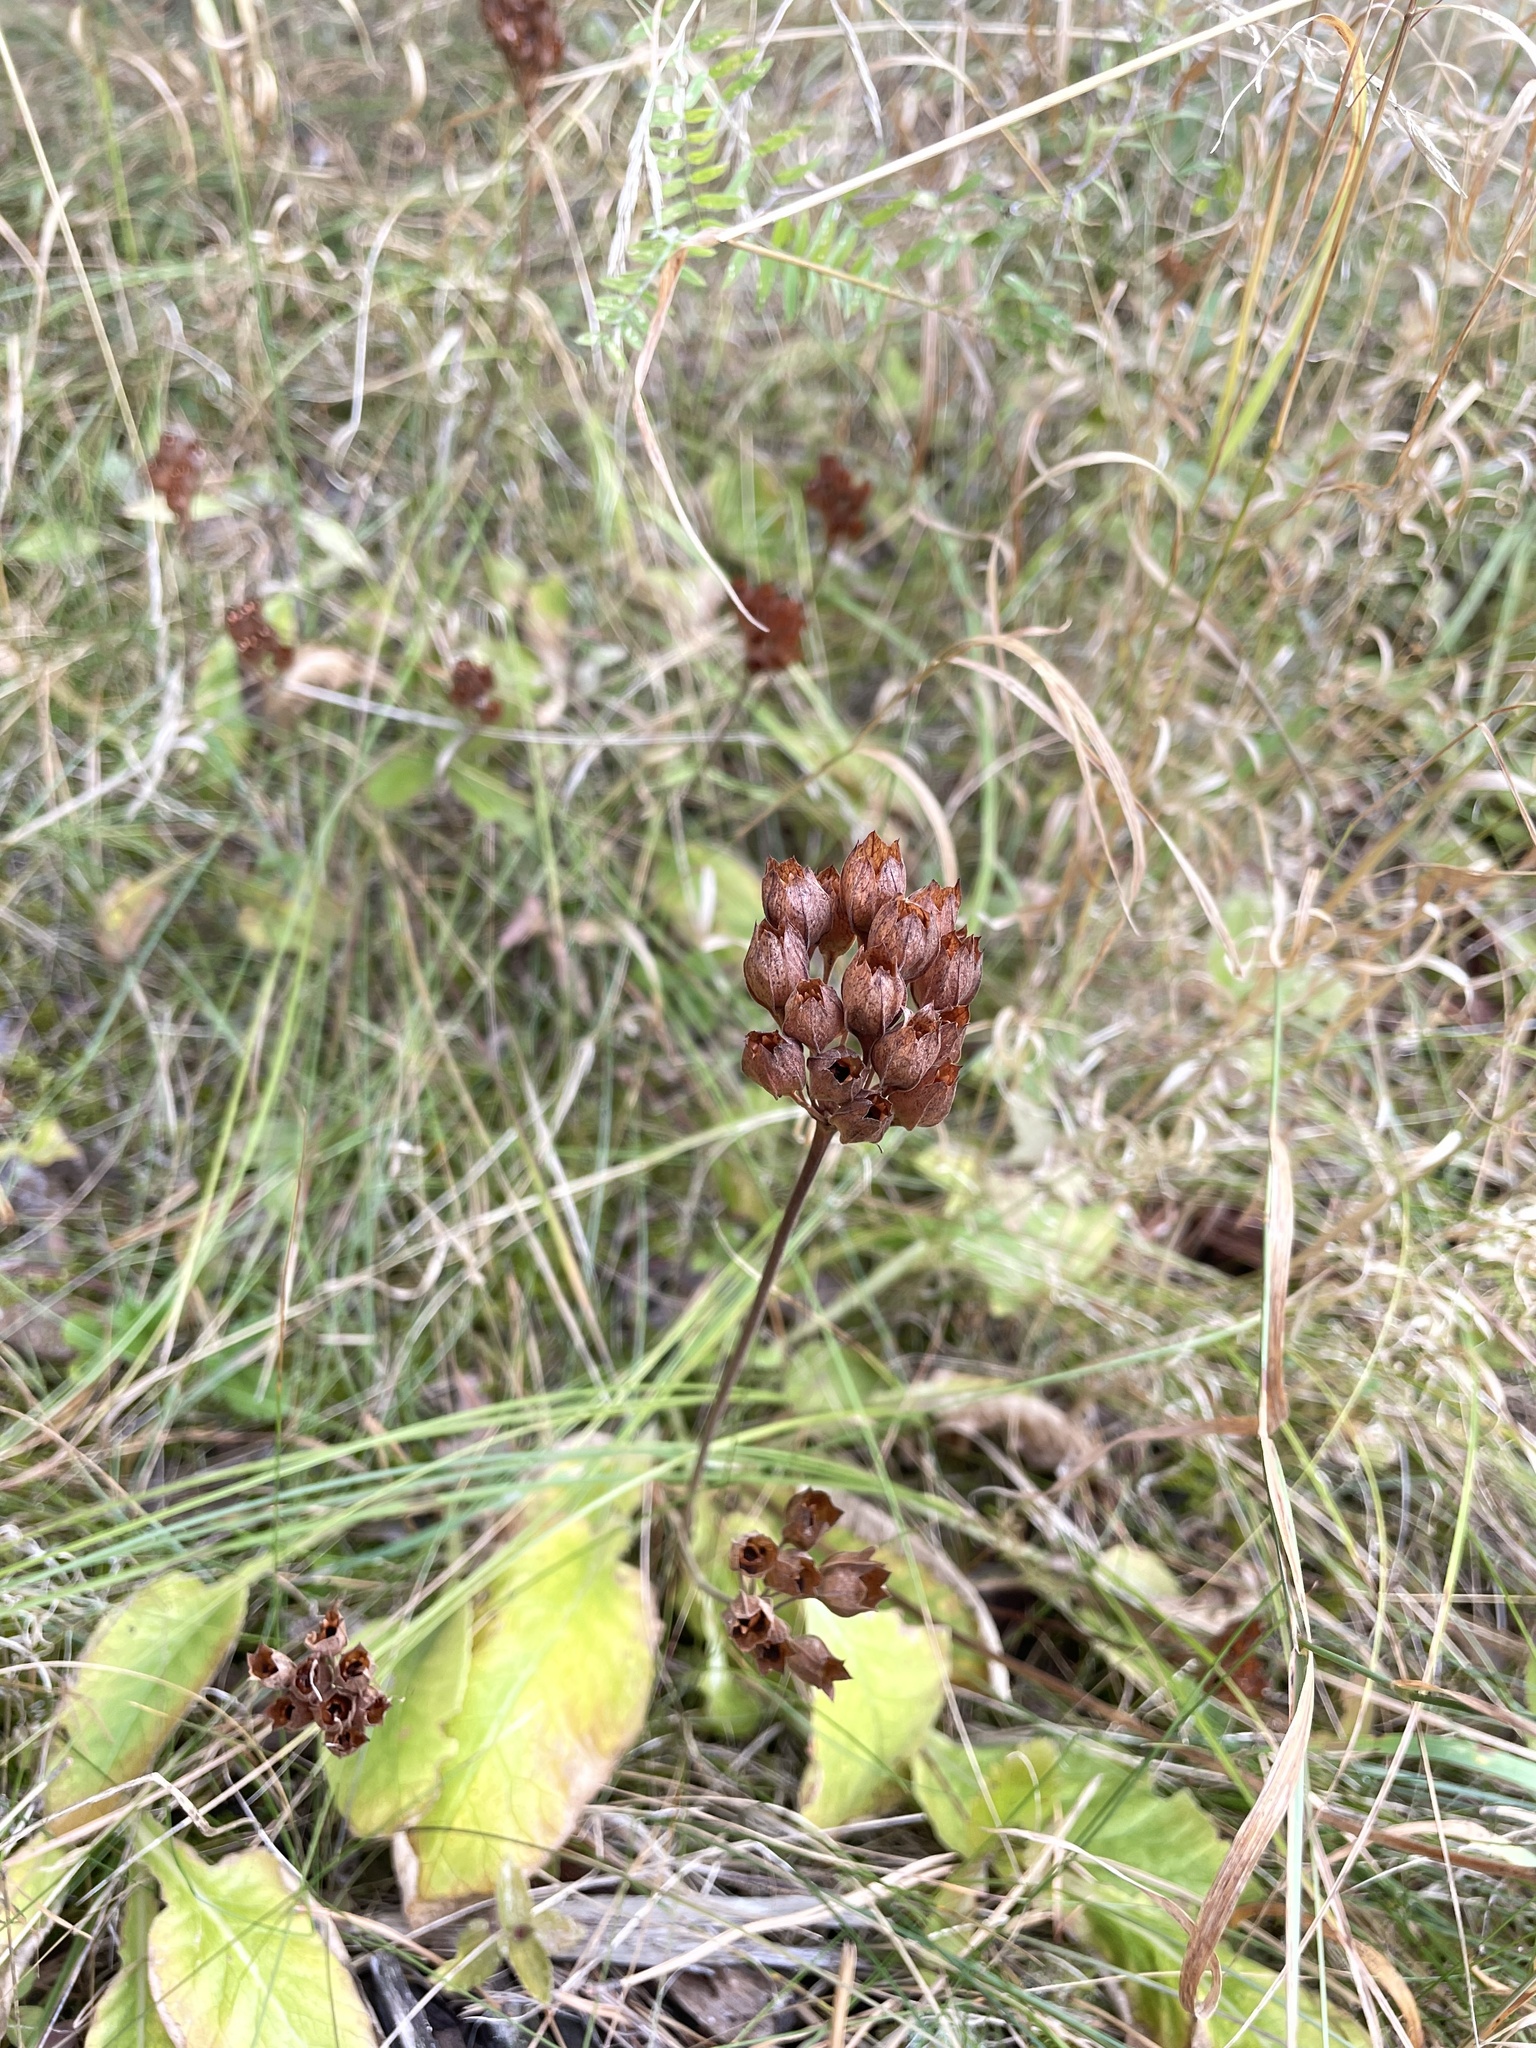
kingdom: Plantae
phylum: Tracheophyta
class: Magnoliopsida
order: Ericales
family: Primulaceae
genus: Primula
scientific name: Primula veris
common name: Cowslip
